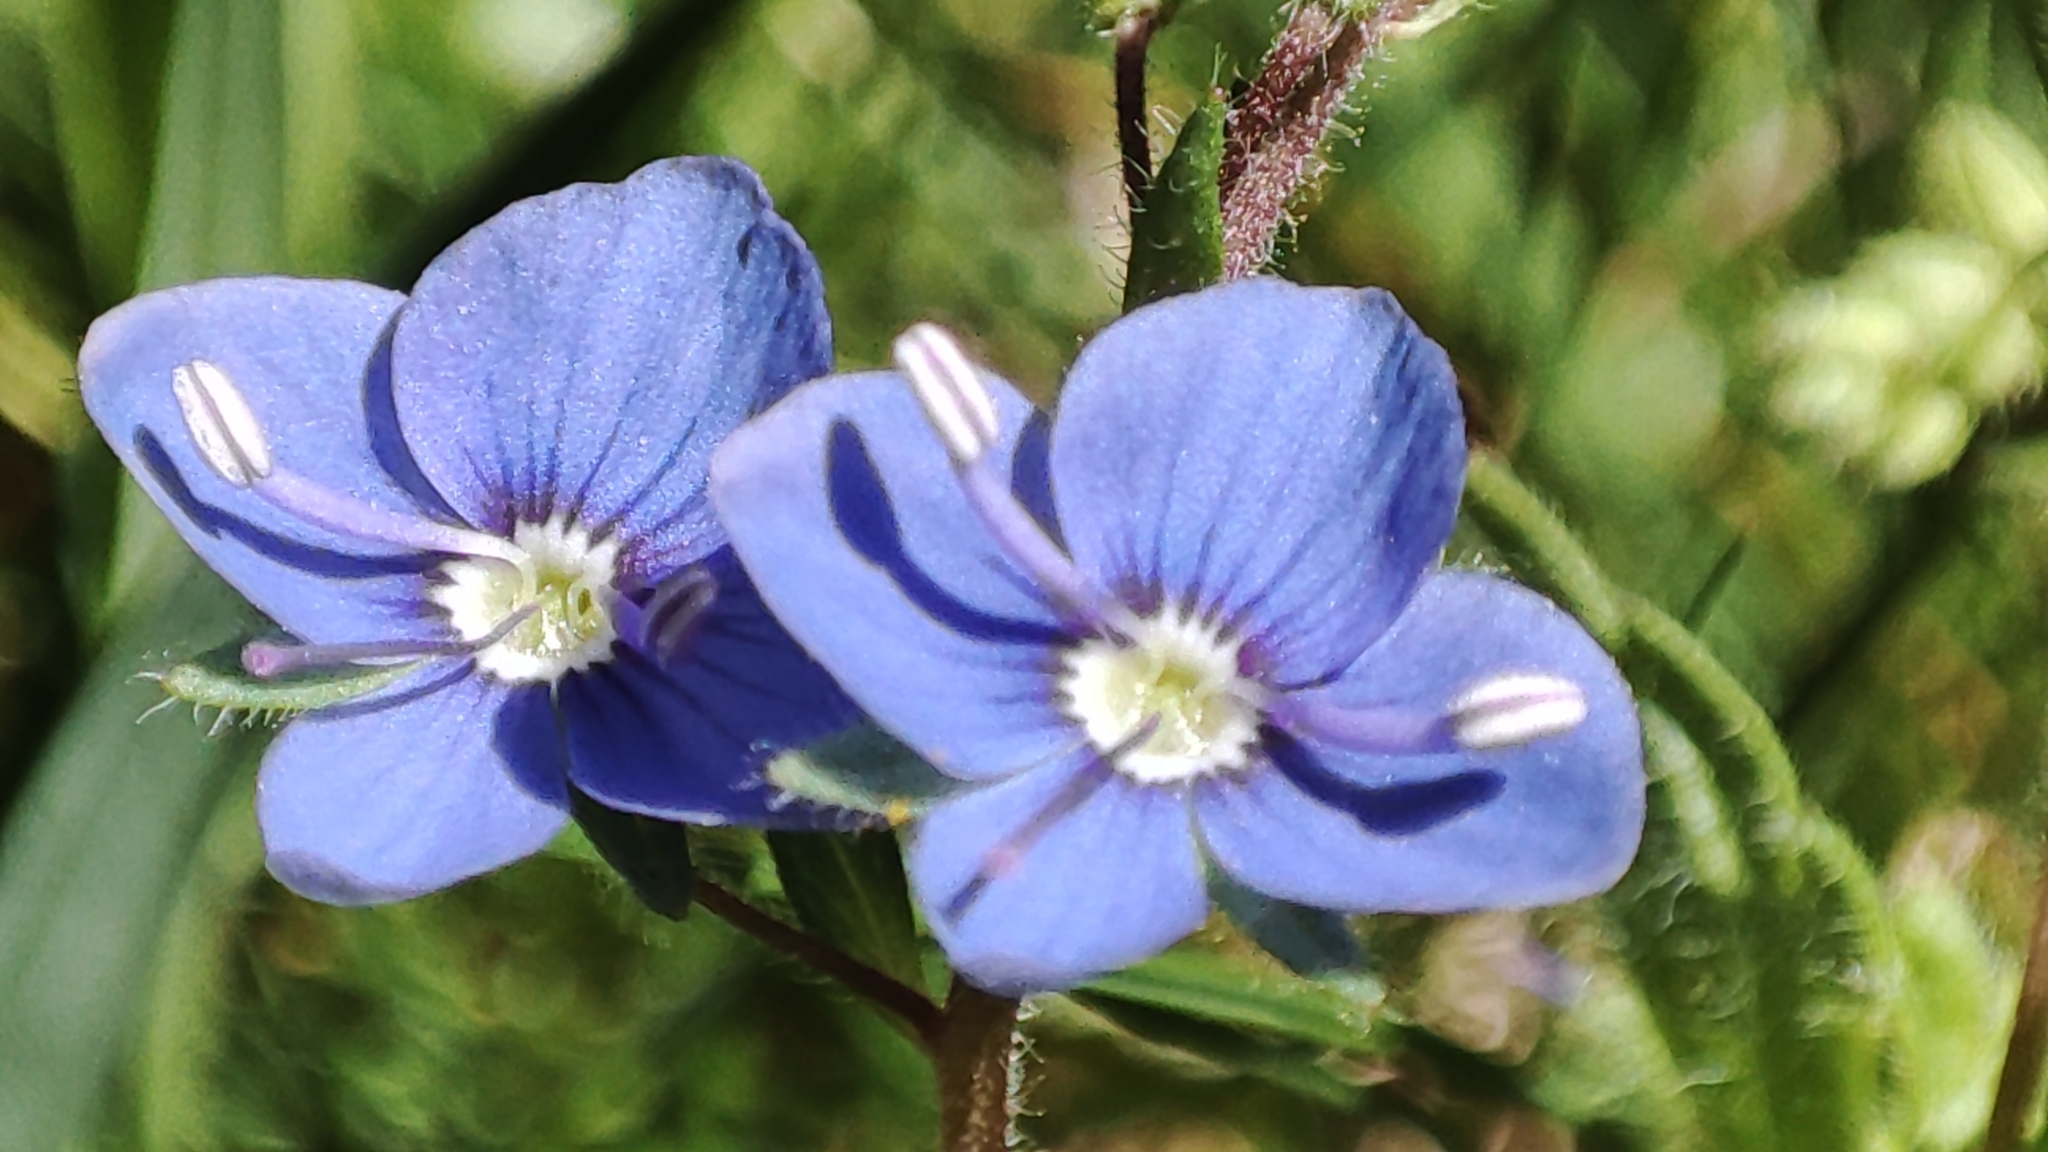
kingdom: Plantae
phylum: Tracheophyta
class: Magnoliopsida
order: Lamiales
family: Plantaginaceae
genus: Veronica
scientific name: Veronica chamaedrys
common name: Germander speedwell
